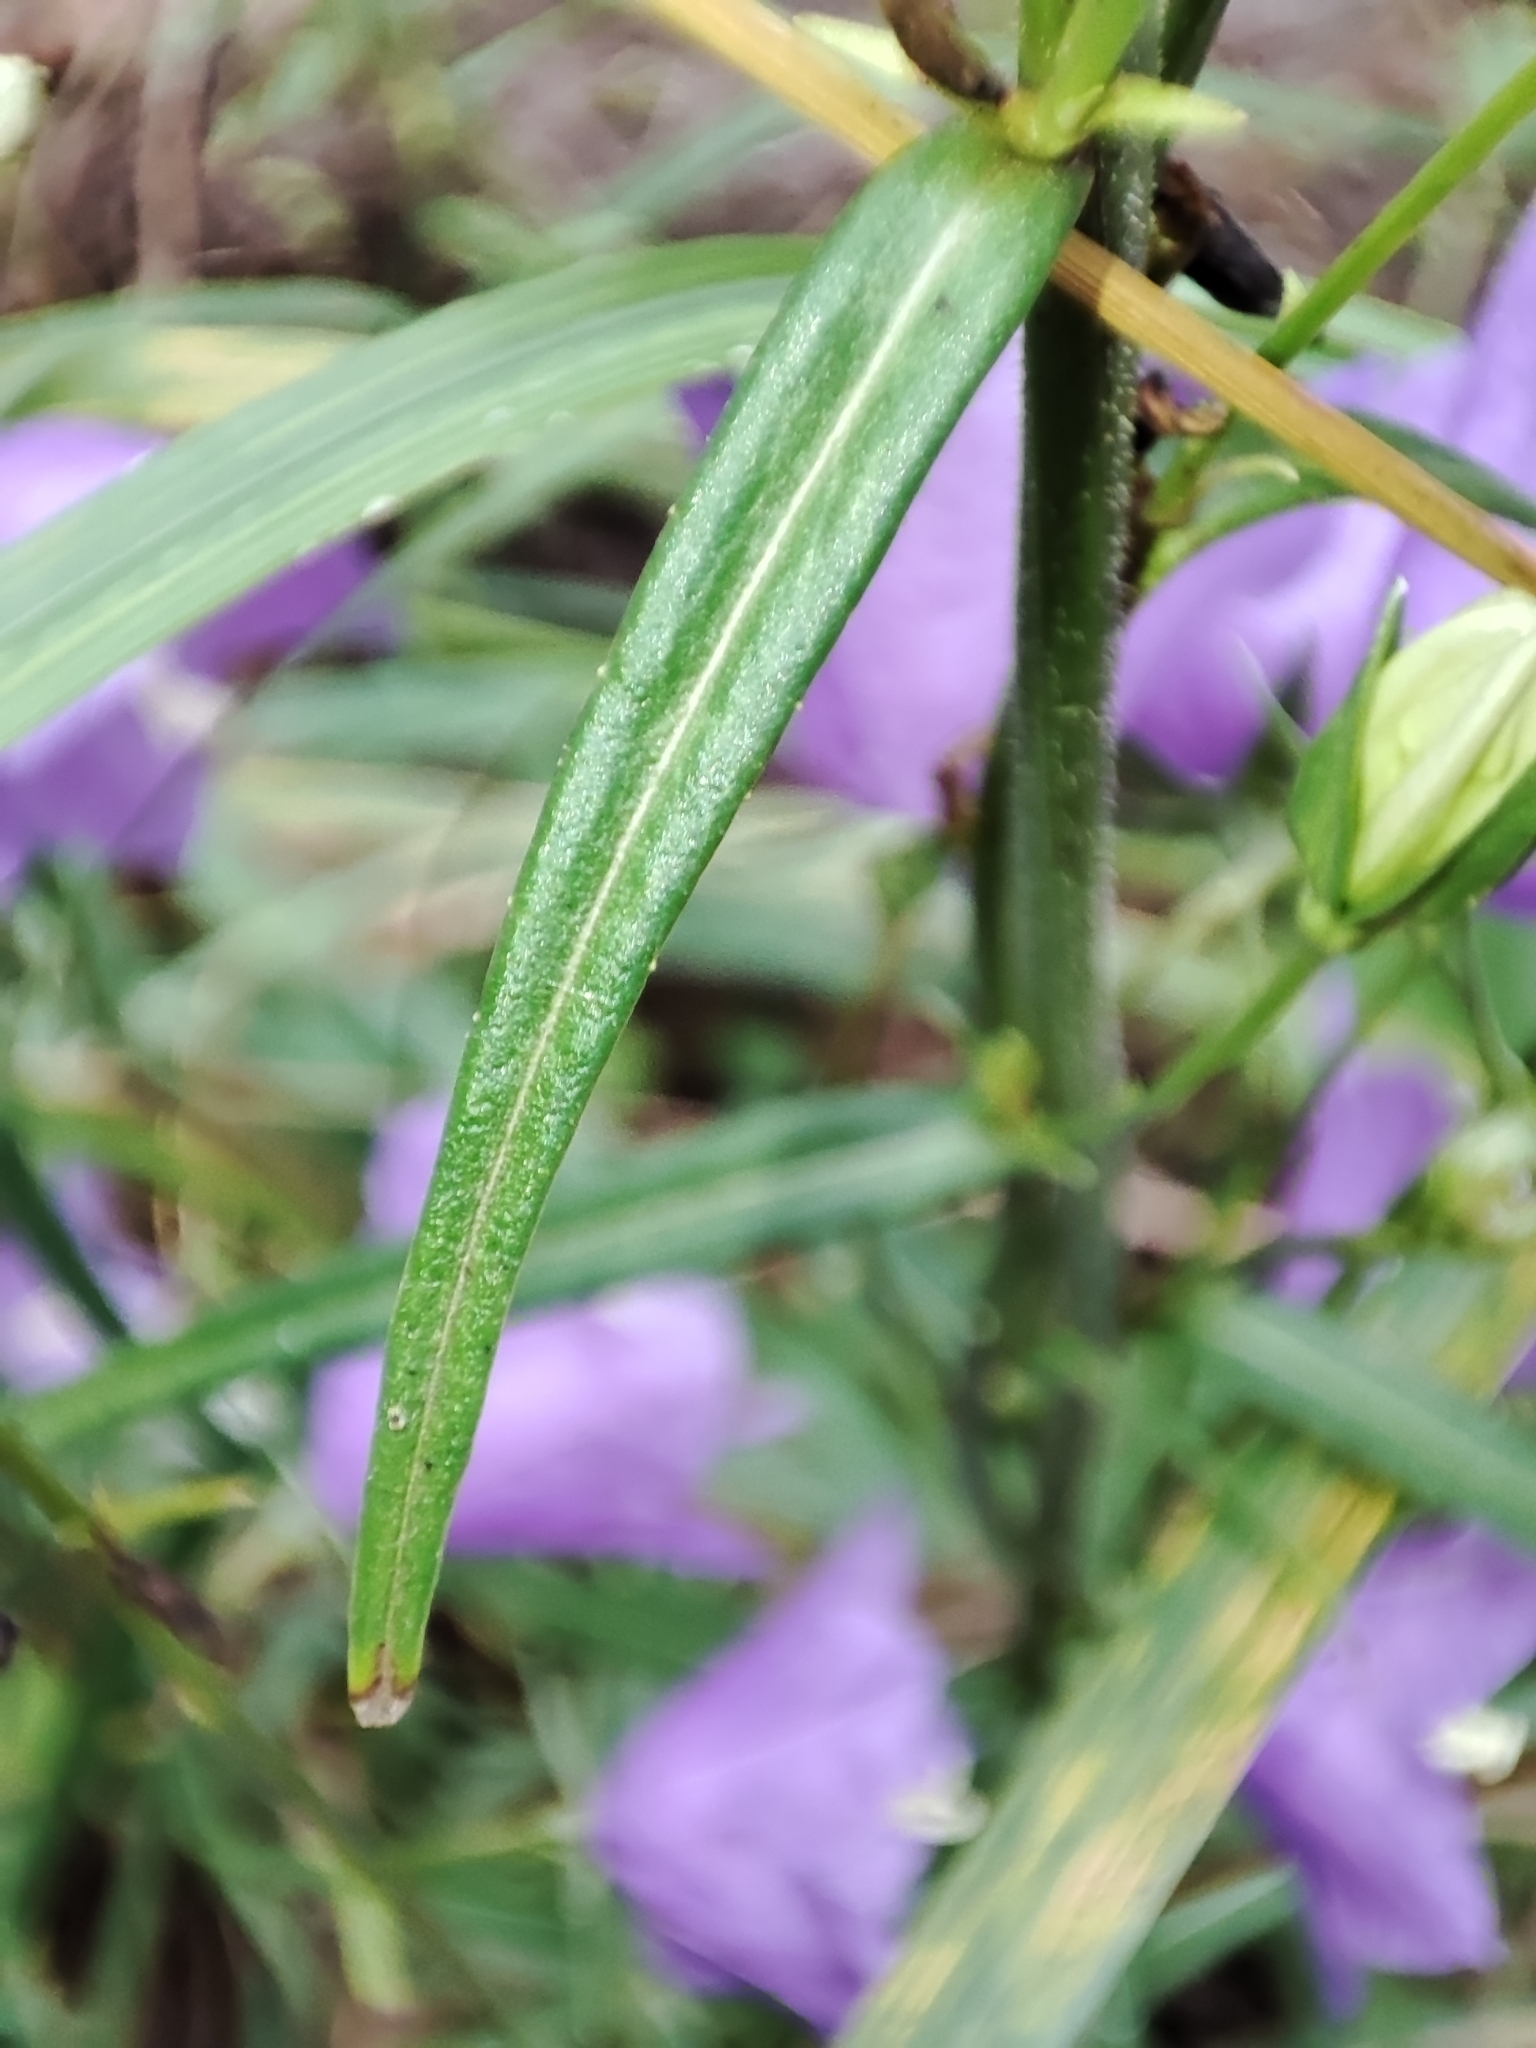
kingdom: Plantae
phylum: Tracheophyta
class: Magnoliopsida
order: Asterales
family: Campanulaceae
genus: Campanula
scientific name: Campanula persicifolia
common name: Peach-leaved bellflower
